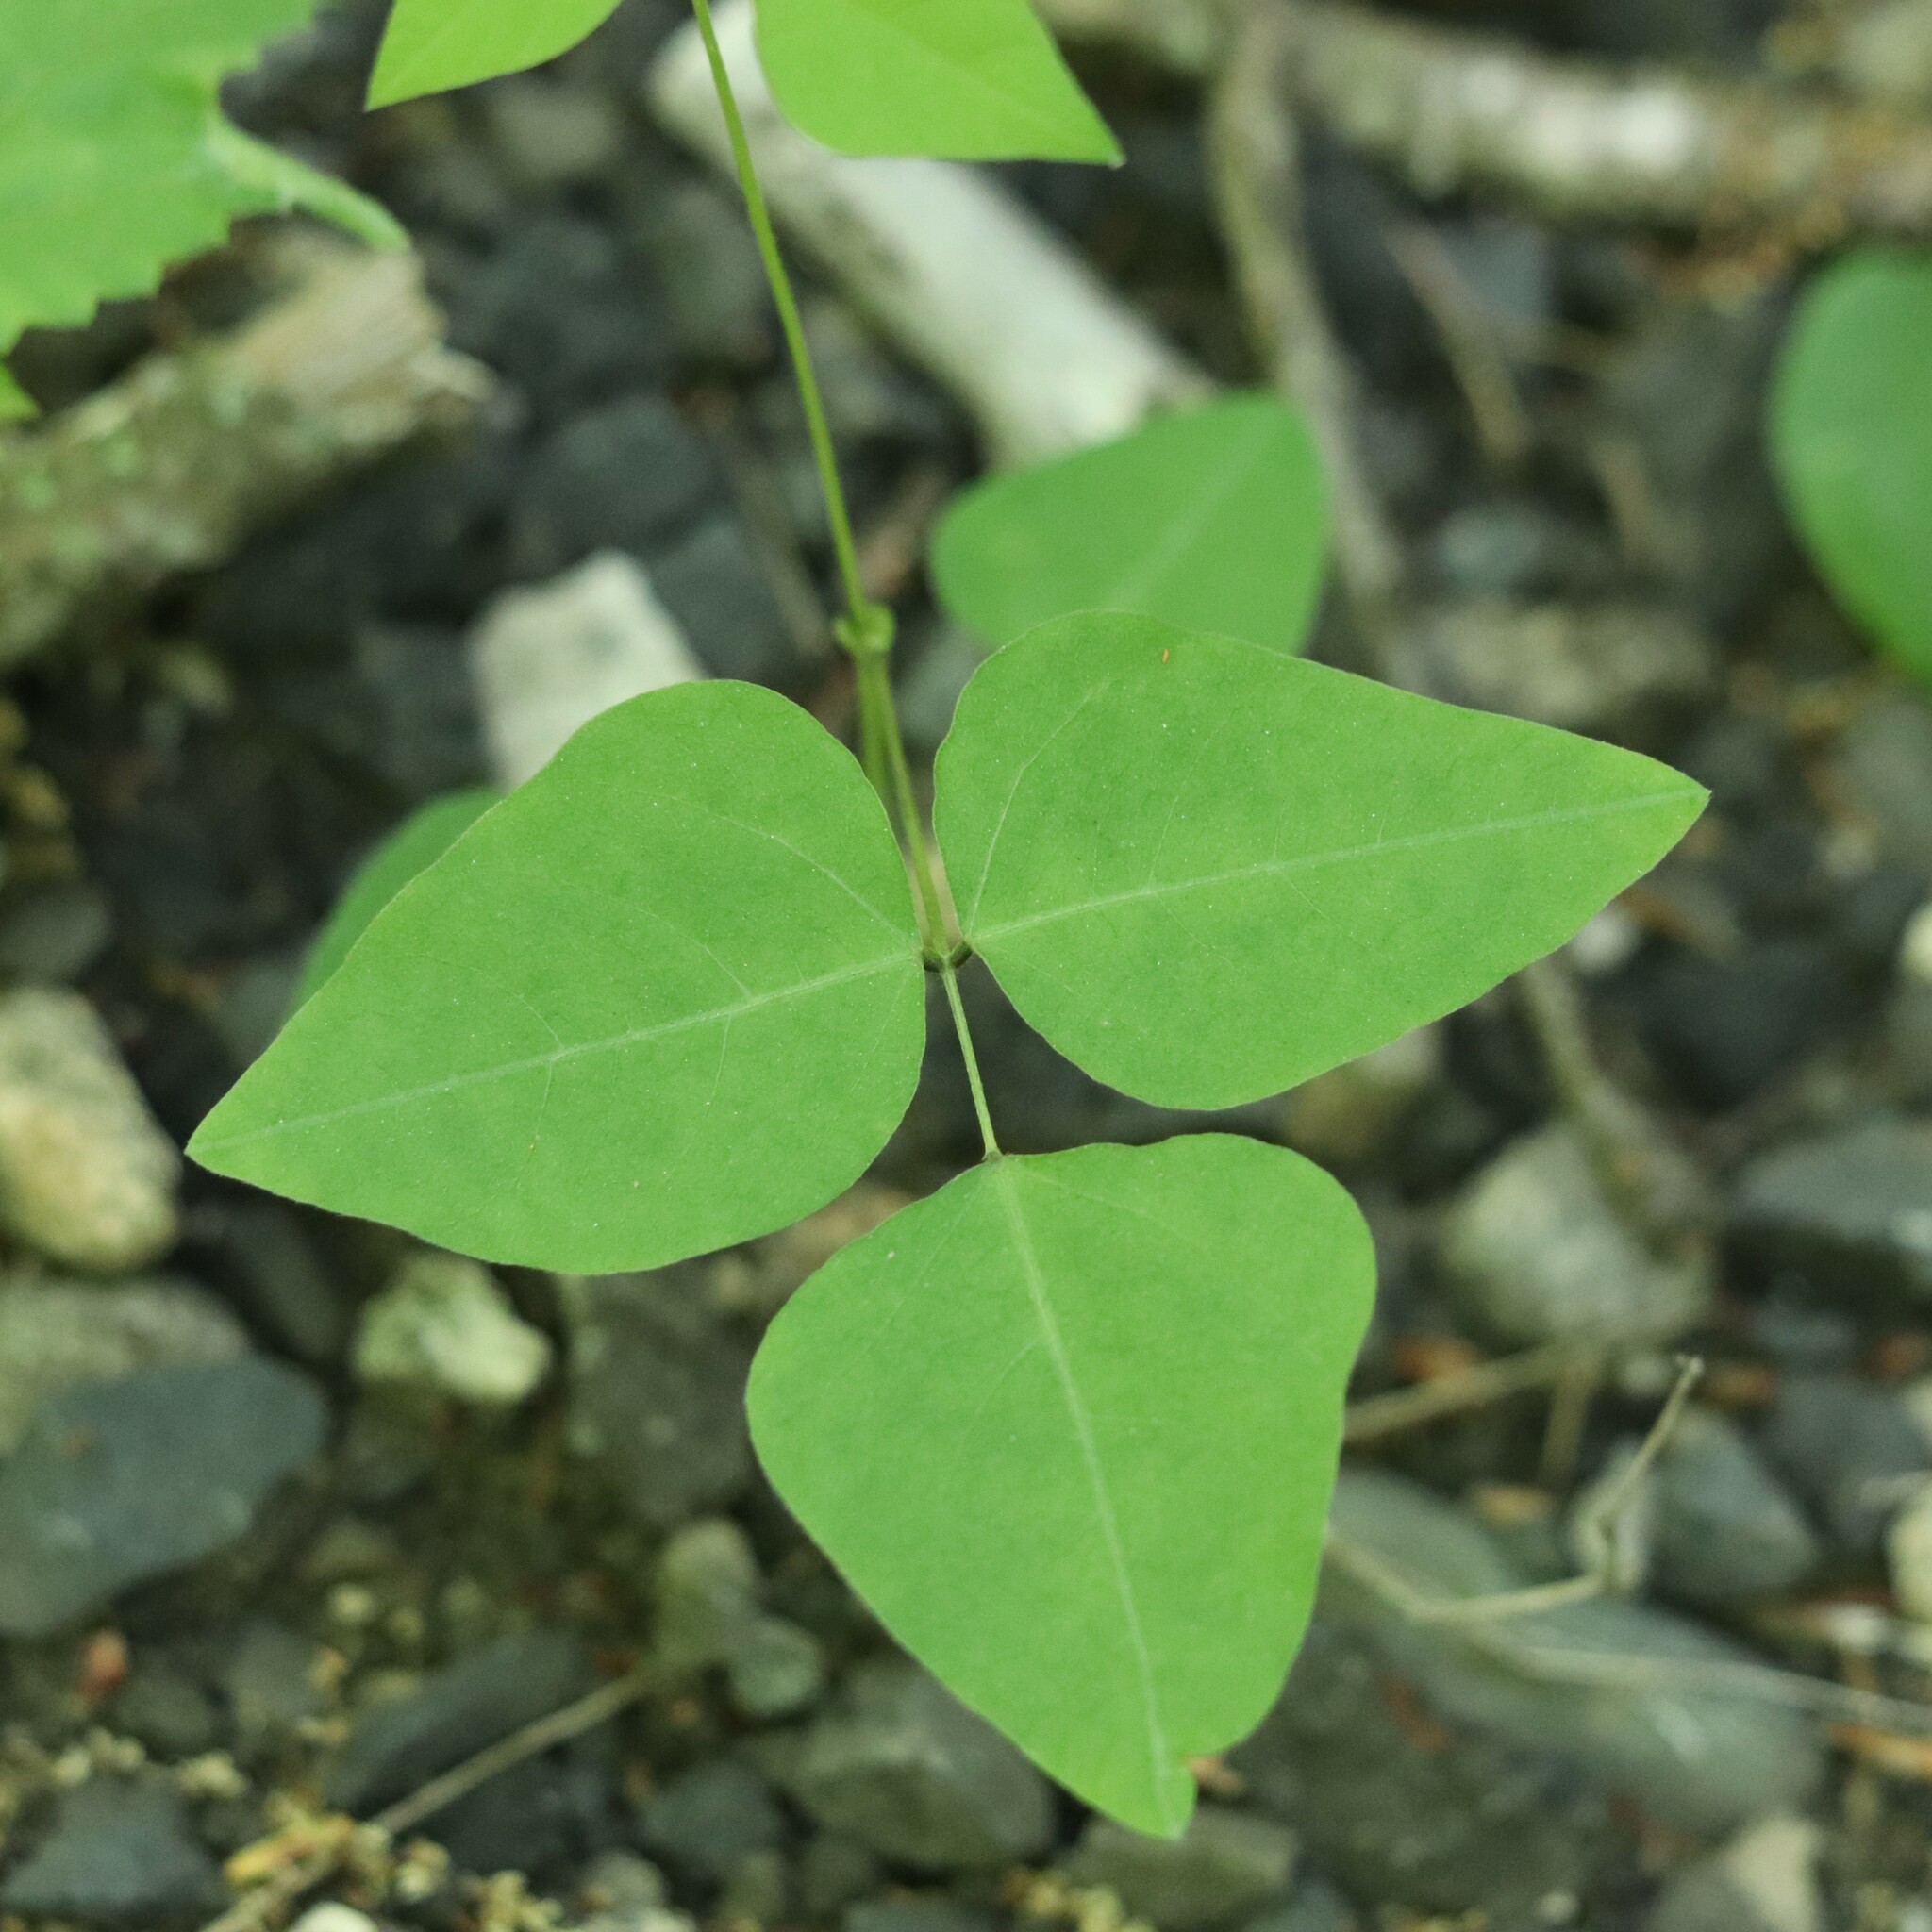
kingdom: Plantae
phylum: Tracheophyta
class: Magnoliopsida
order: Fabales
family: Fabaceae
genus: Amphicarpaea
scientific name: Amphicarpaea bracteata
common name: American hog peanut
